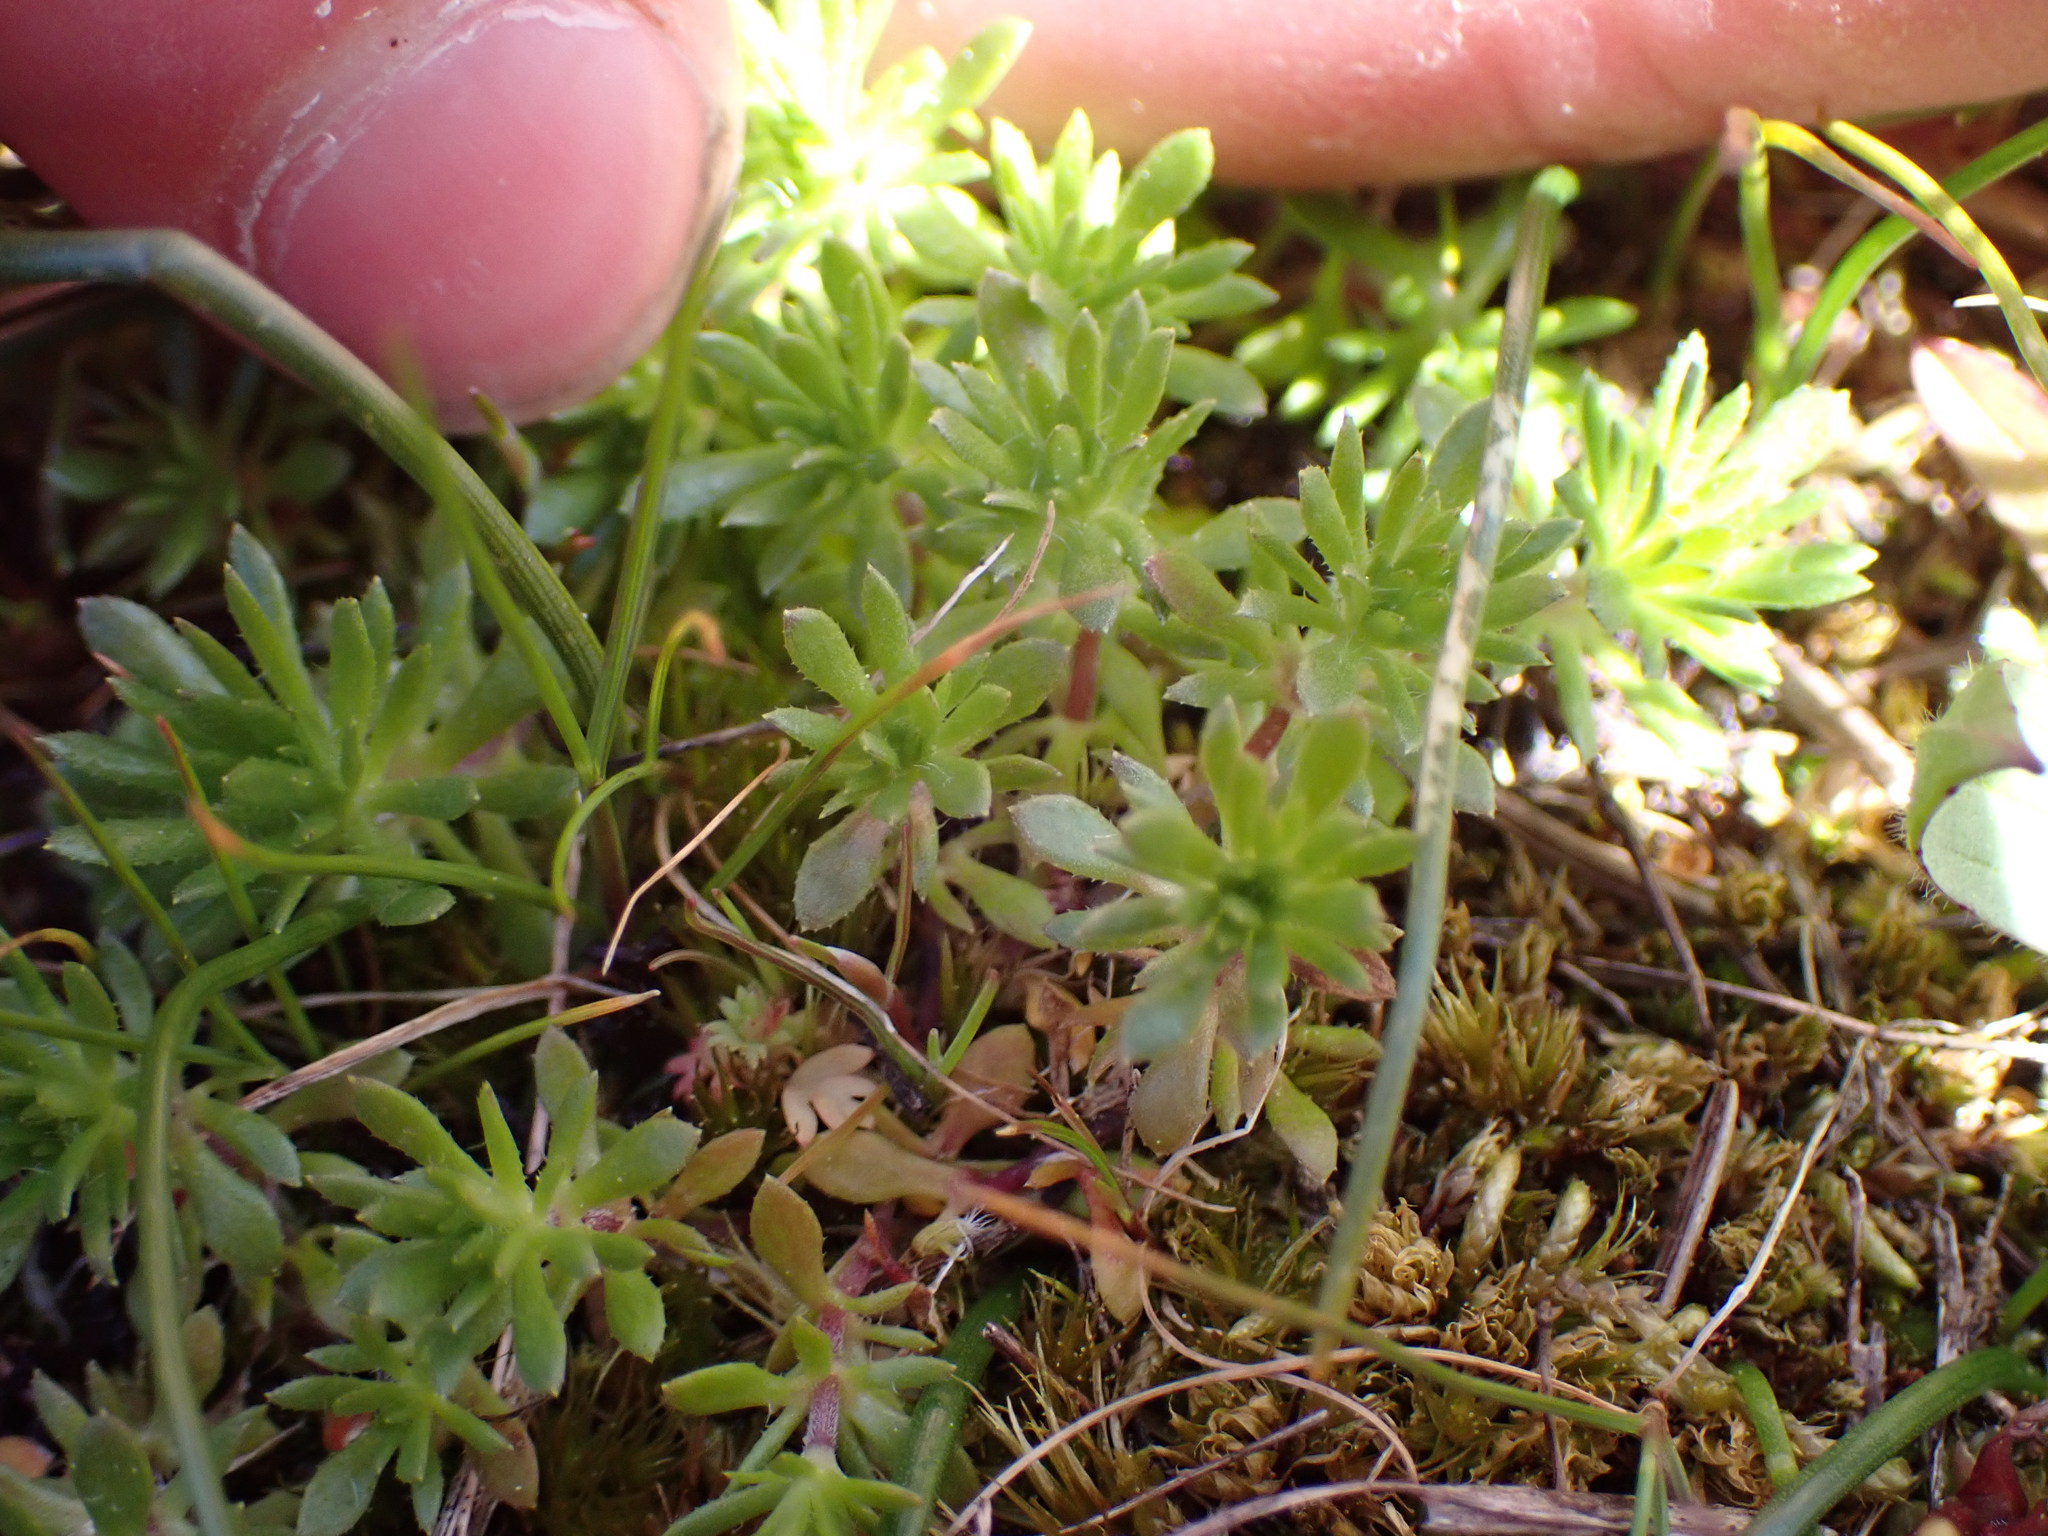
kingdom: Plantae
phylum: Tracheophyta
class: Magnoliopsida
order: Ericales
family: Polemoniaceae
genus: Leptosiphon
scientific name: Leptosiphon bicolor
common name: True babystars
